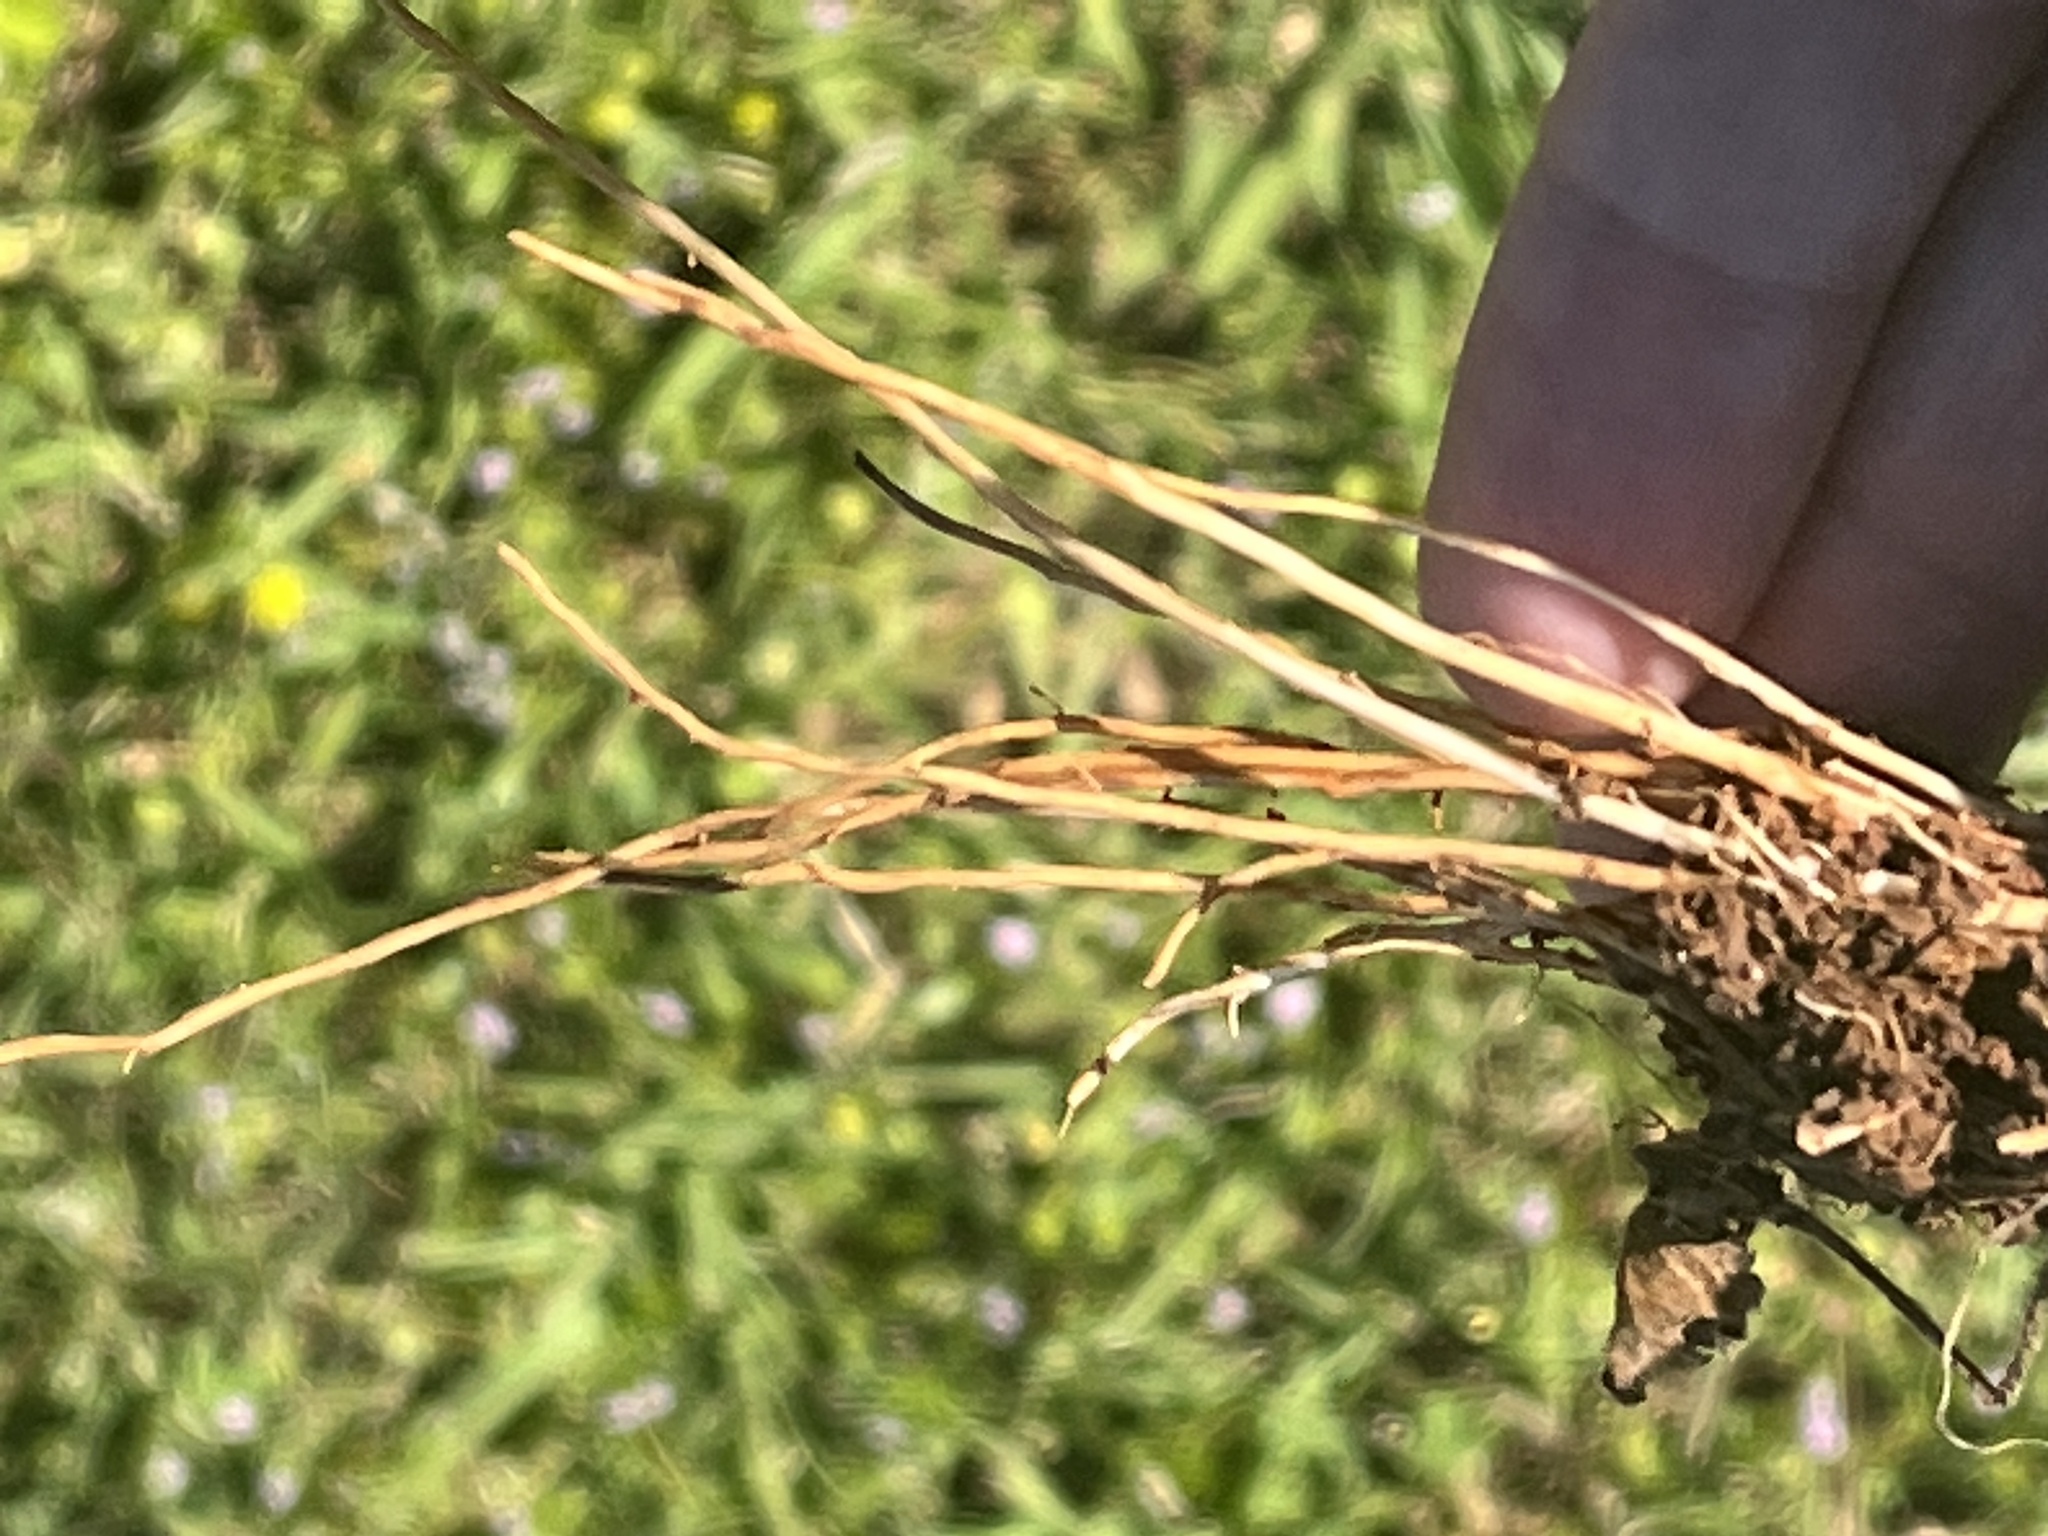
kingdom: Plantae
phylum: Tracheophyta
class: Magnoliopsida
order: Ranunculales
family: Ranunculaceae
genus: Ranunculus
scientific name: Ranunculus sardous
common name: Hairy buttercup
